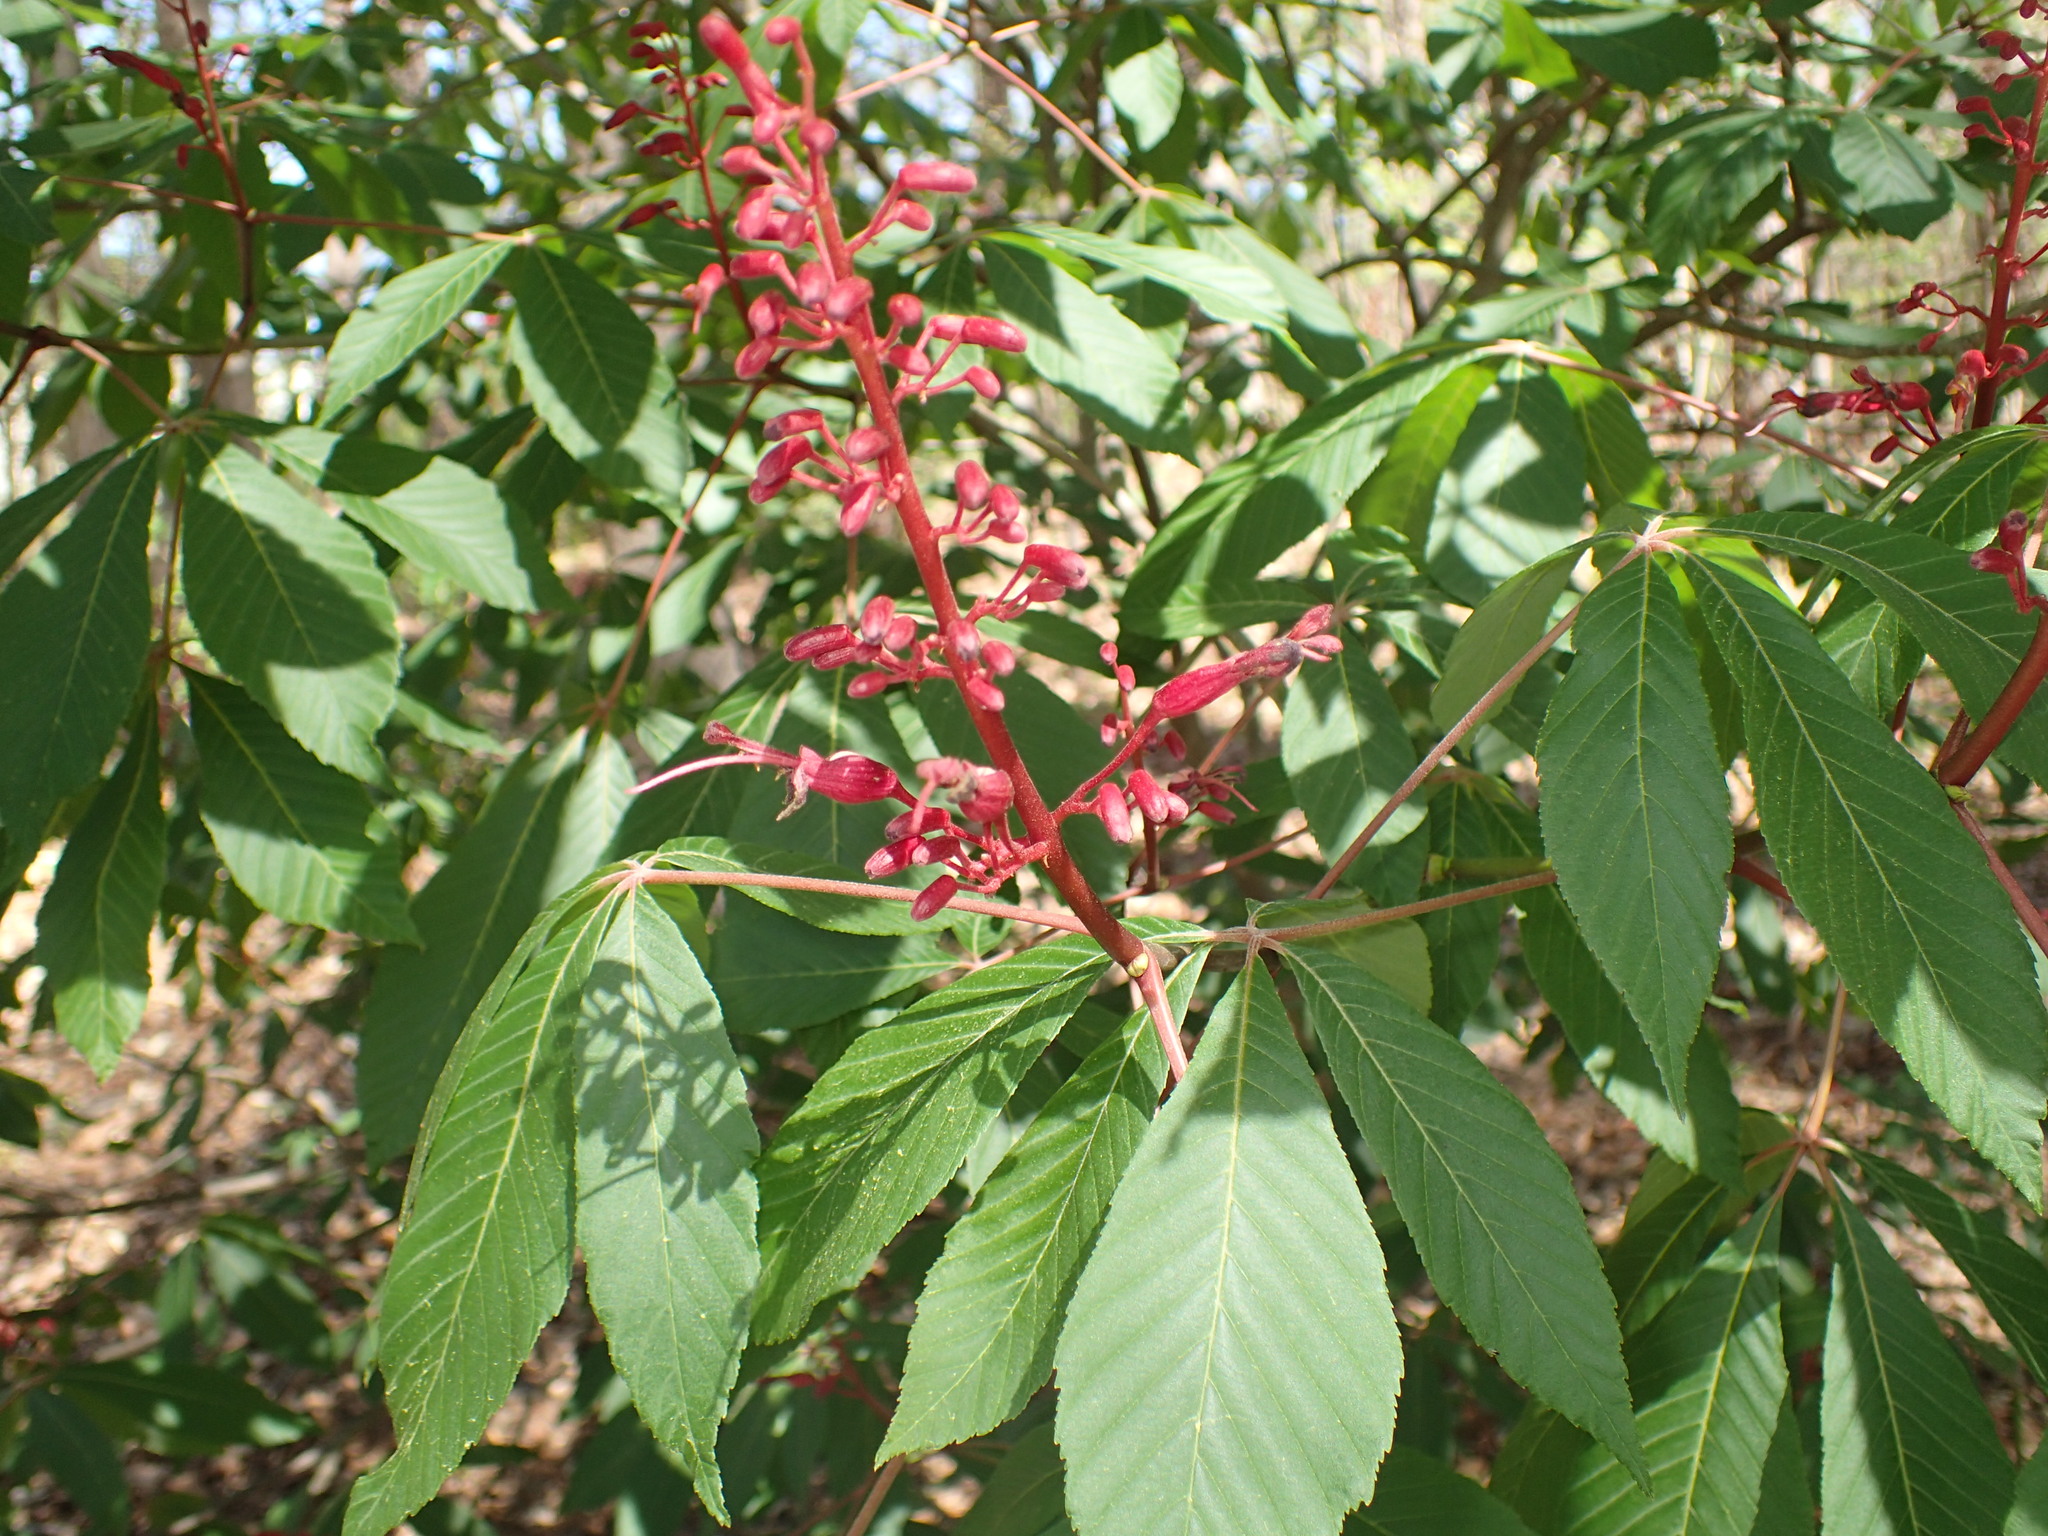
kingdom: Plantae
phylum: Tracheophyta
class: Magnoliopsida
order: Sapindales
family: Sapindaceae
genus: Aesculus
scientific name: Aesculus pavia
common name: Red buckeye
